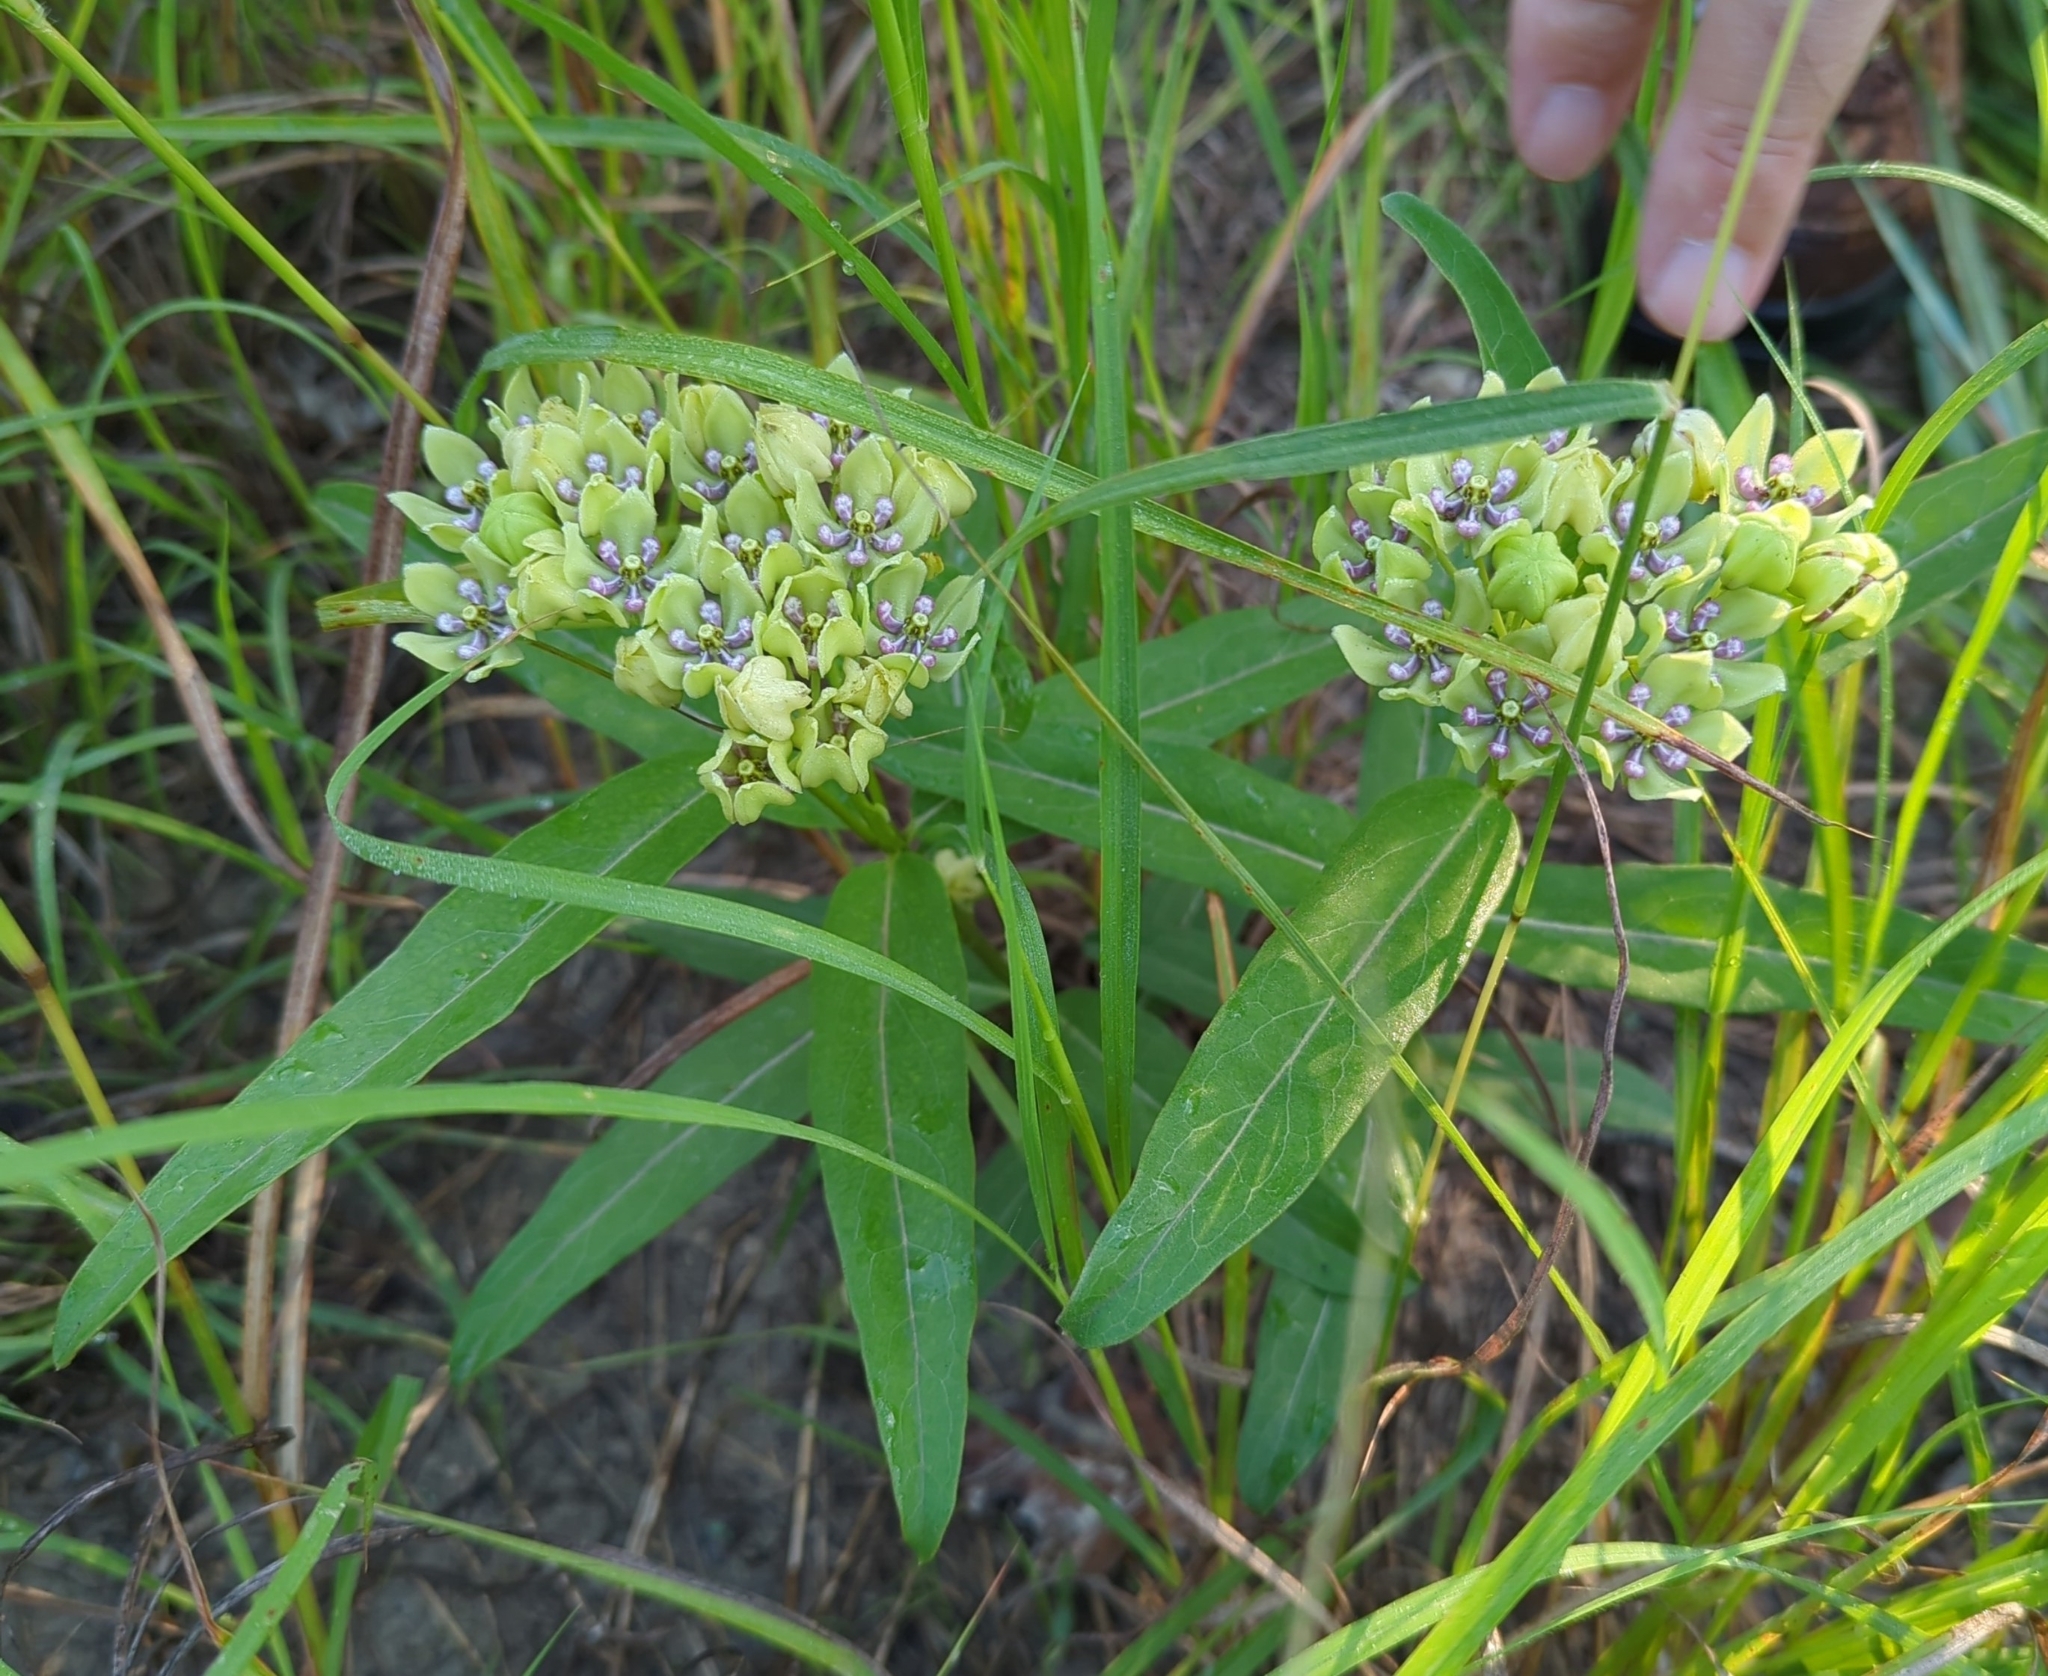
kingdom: Plantae
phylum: Tracheophyta
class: Magnoliopsida
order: Gentianales
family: Apocynaceae
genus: Asclepias
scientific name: Asclepias viridis
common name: Antelope-horns
